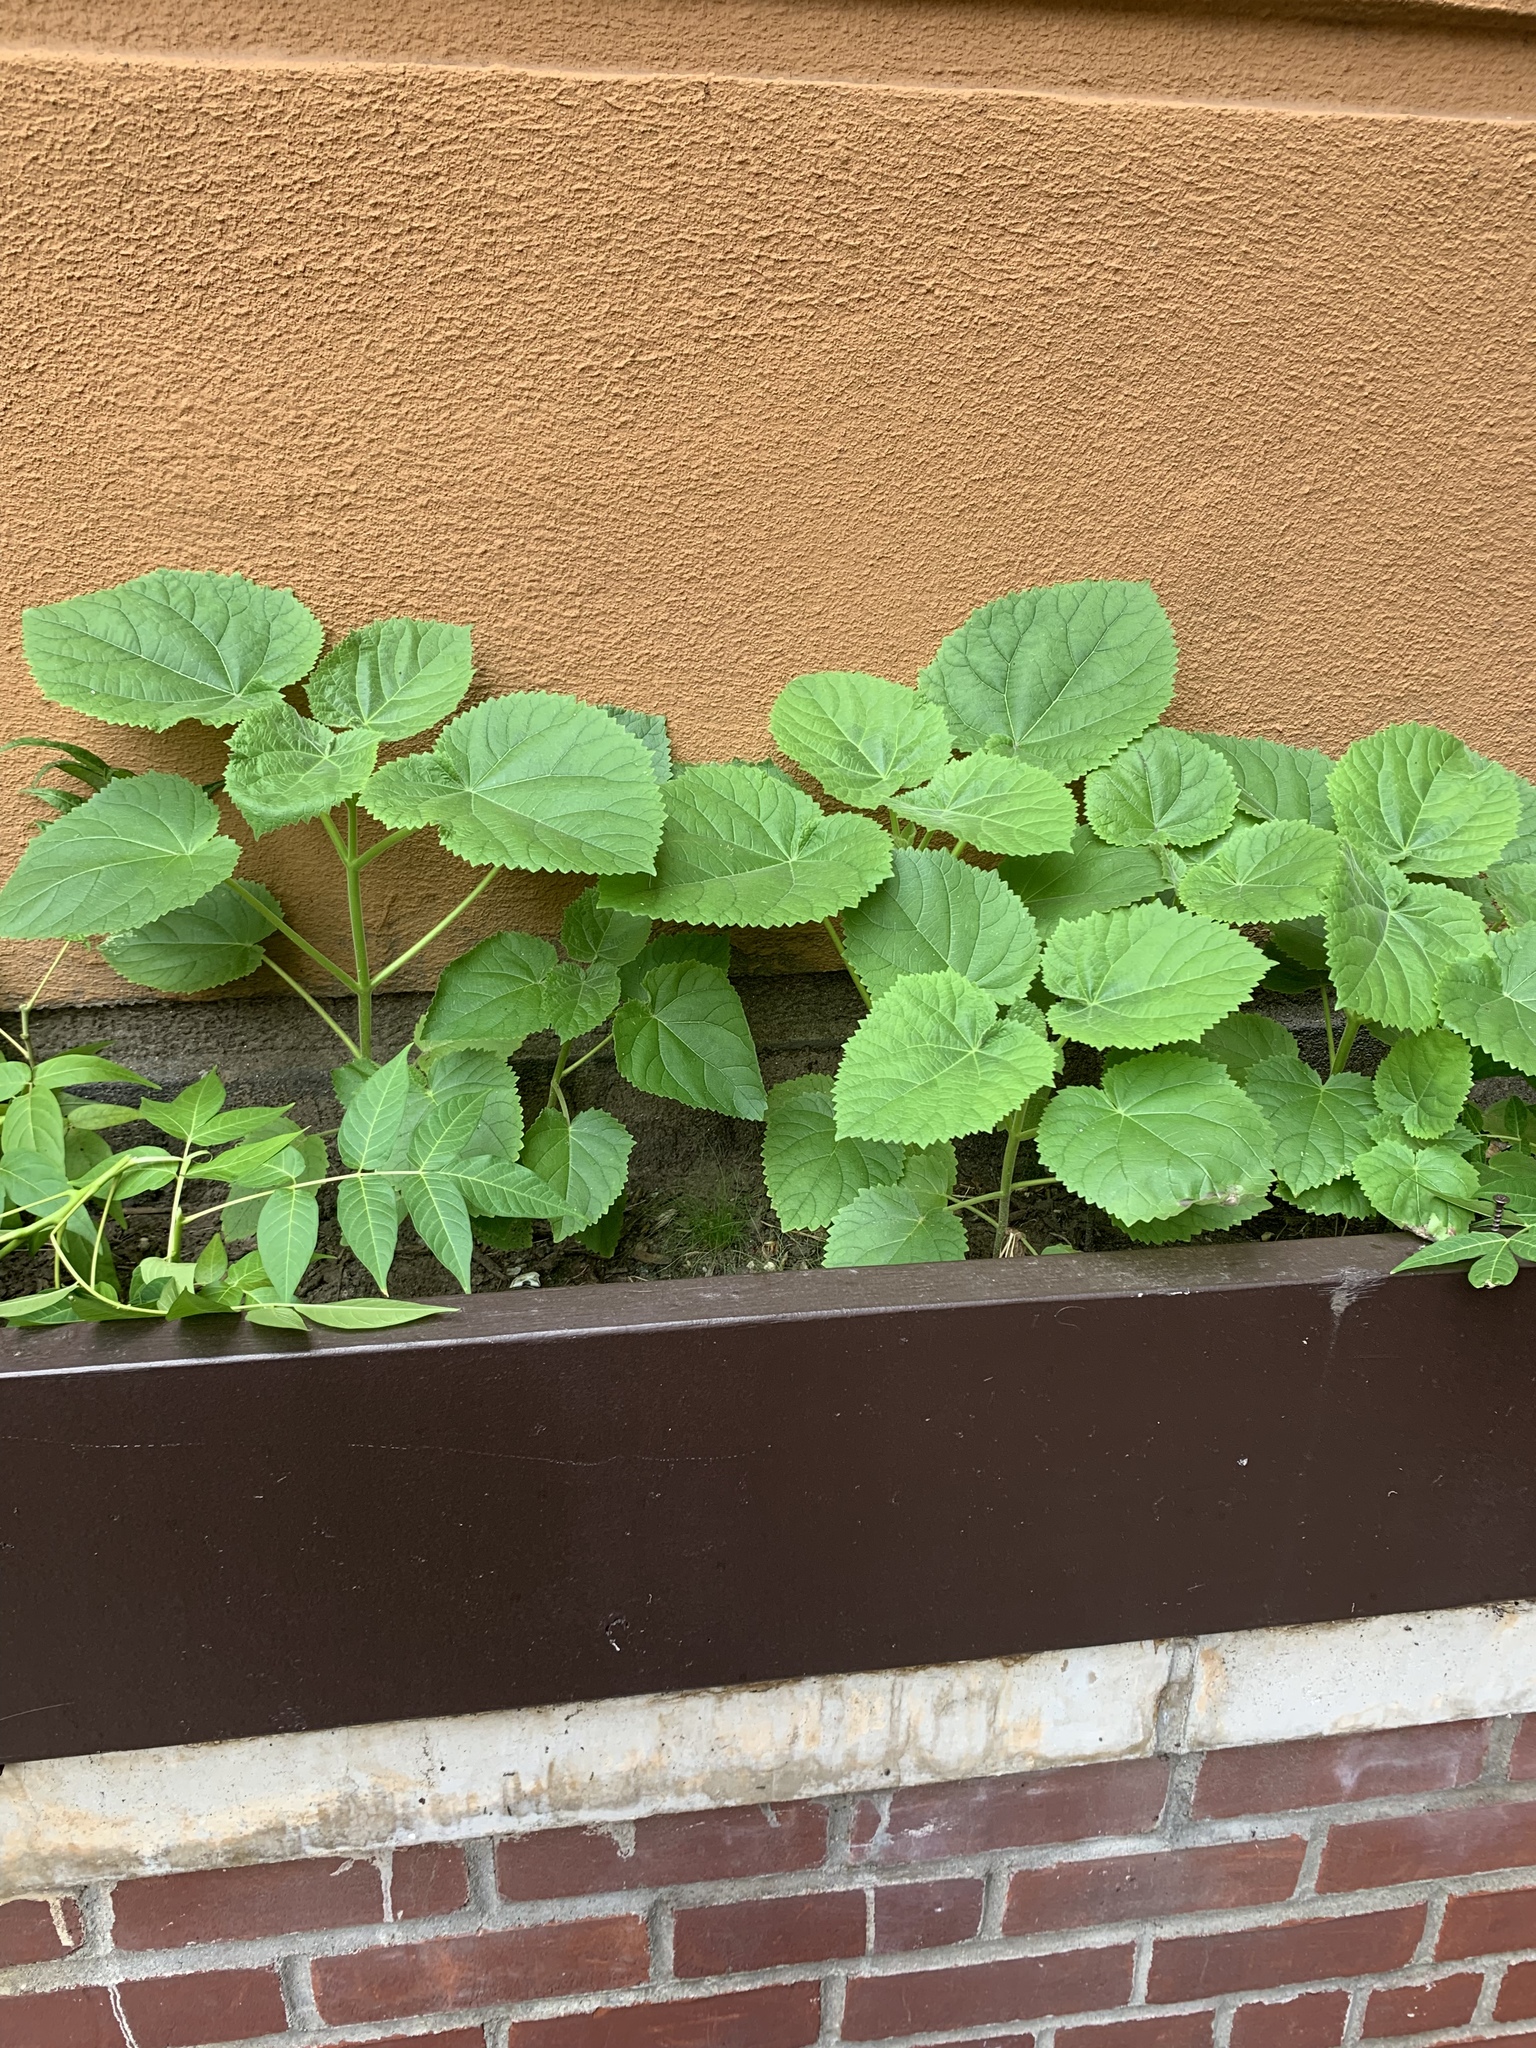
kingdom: Plantae
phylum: Tracheophyta
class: Magnoliopsida
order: Lamiales
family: Paulowniaceae
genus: Paulownia
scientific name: Paulownia tomentosa
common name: Foxglove-tree
